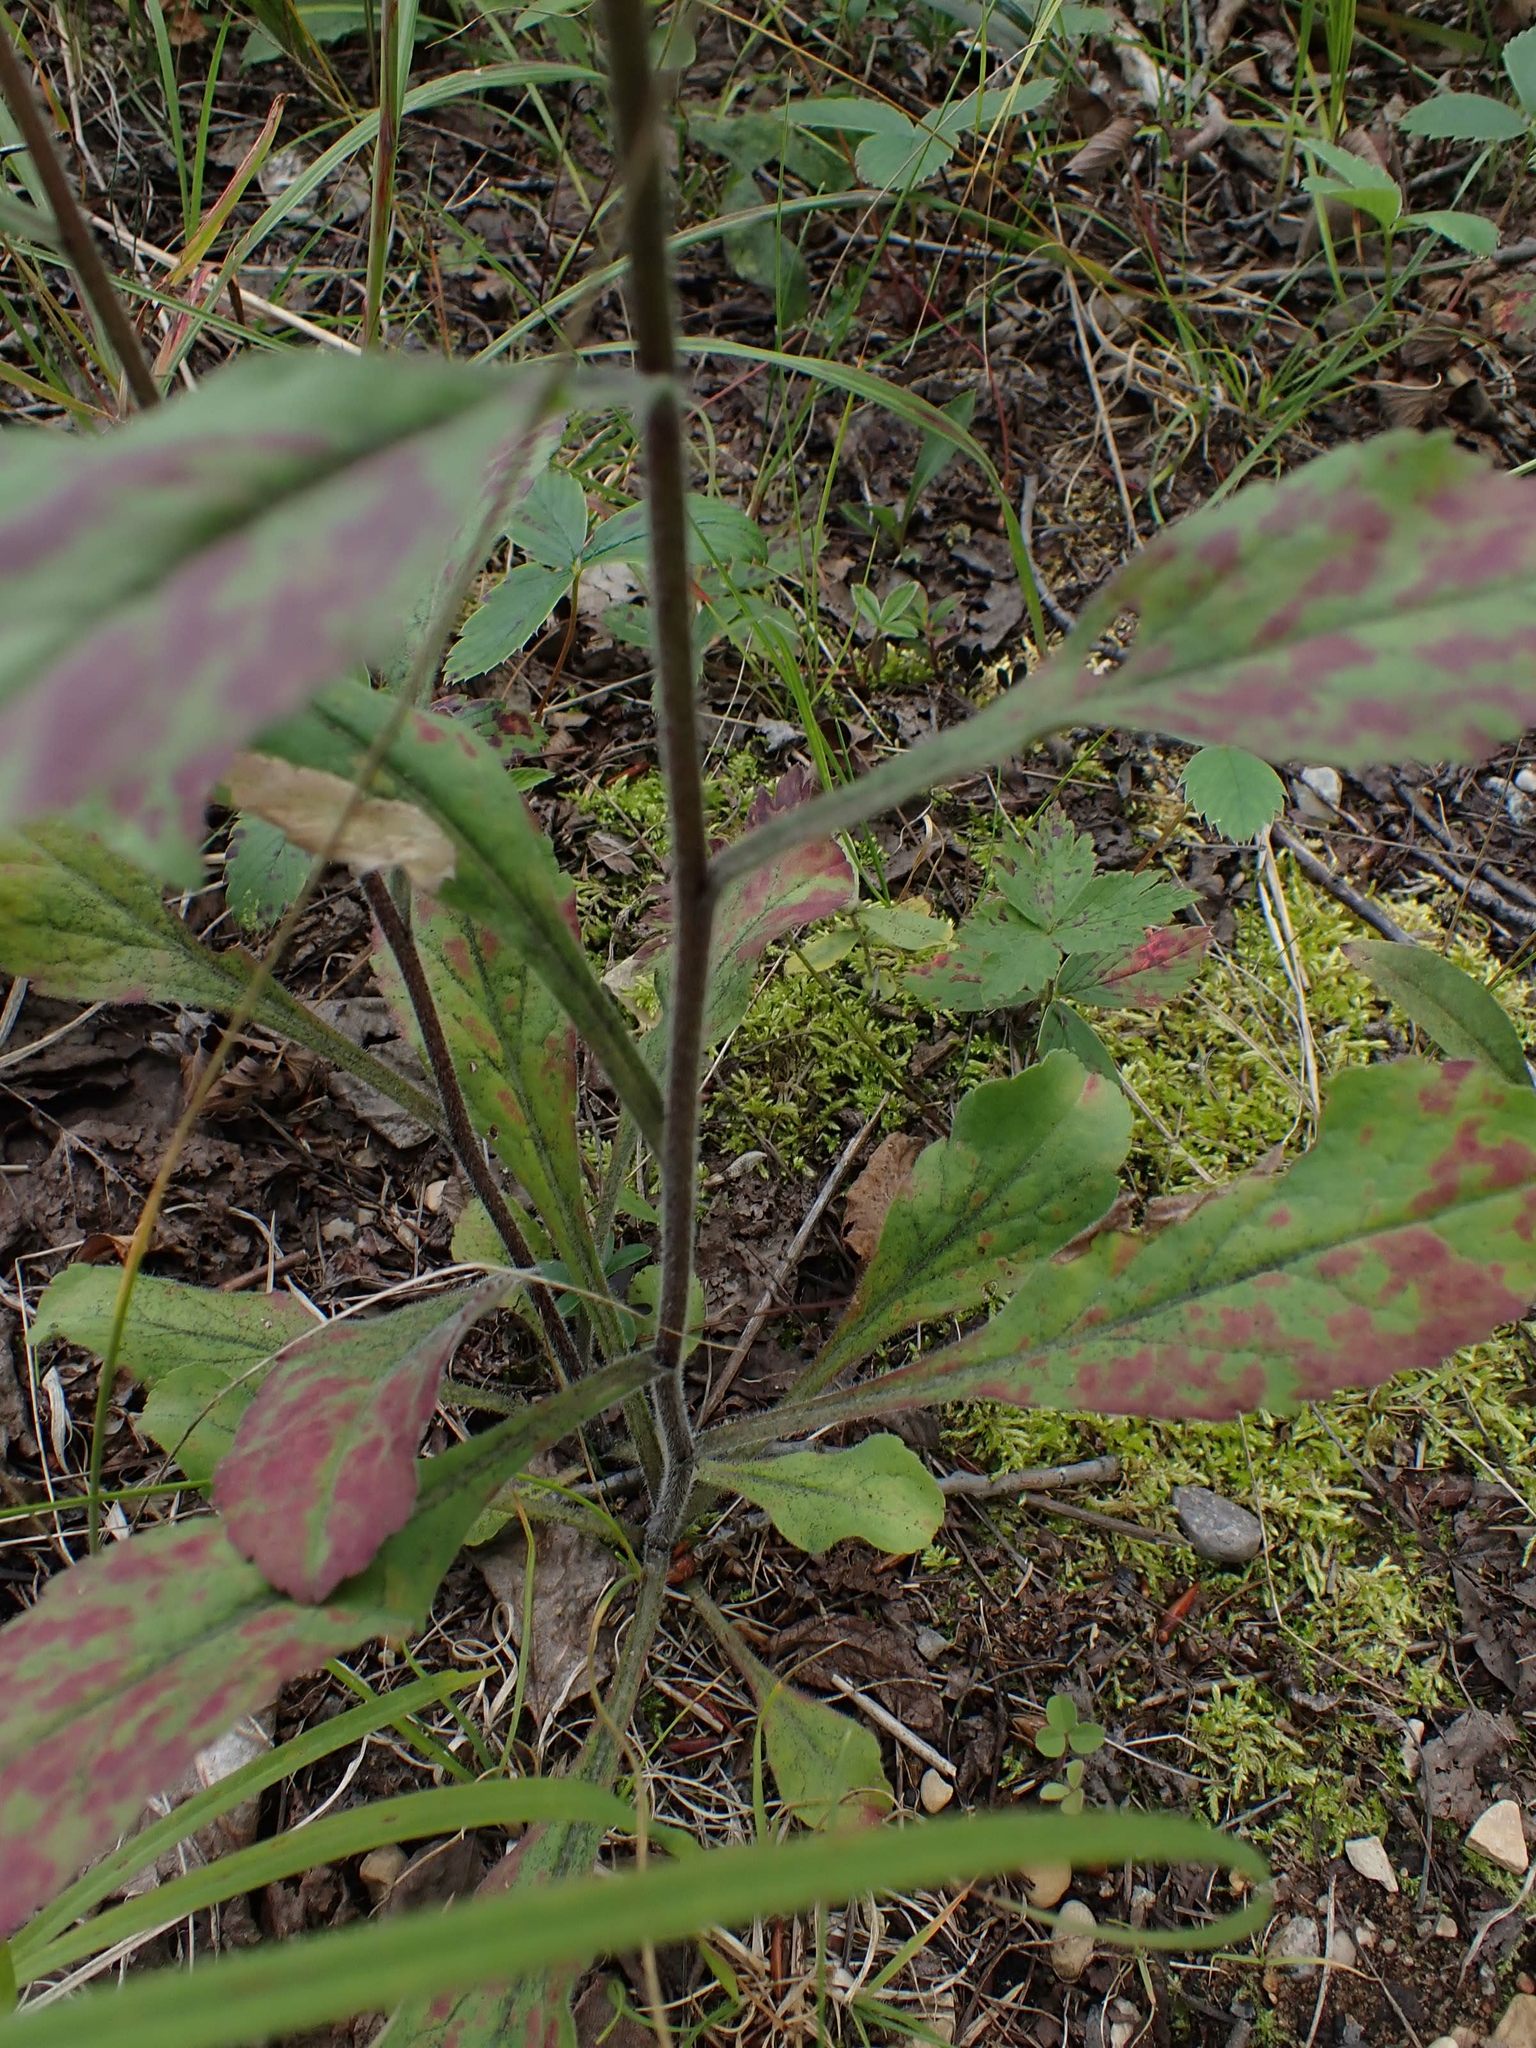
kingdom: Plantae
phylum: Tracheophyta
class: Magnoliopsida
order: Asterales
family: Asteraceae
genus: Solidago
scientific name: Solidago hispida
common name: Hairy goldenrod
